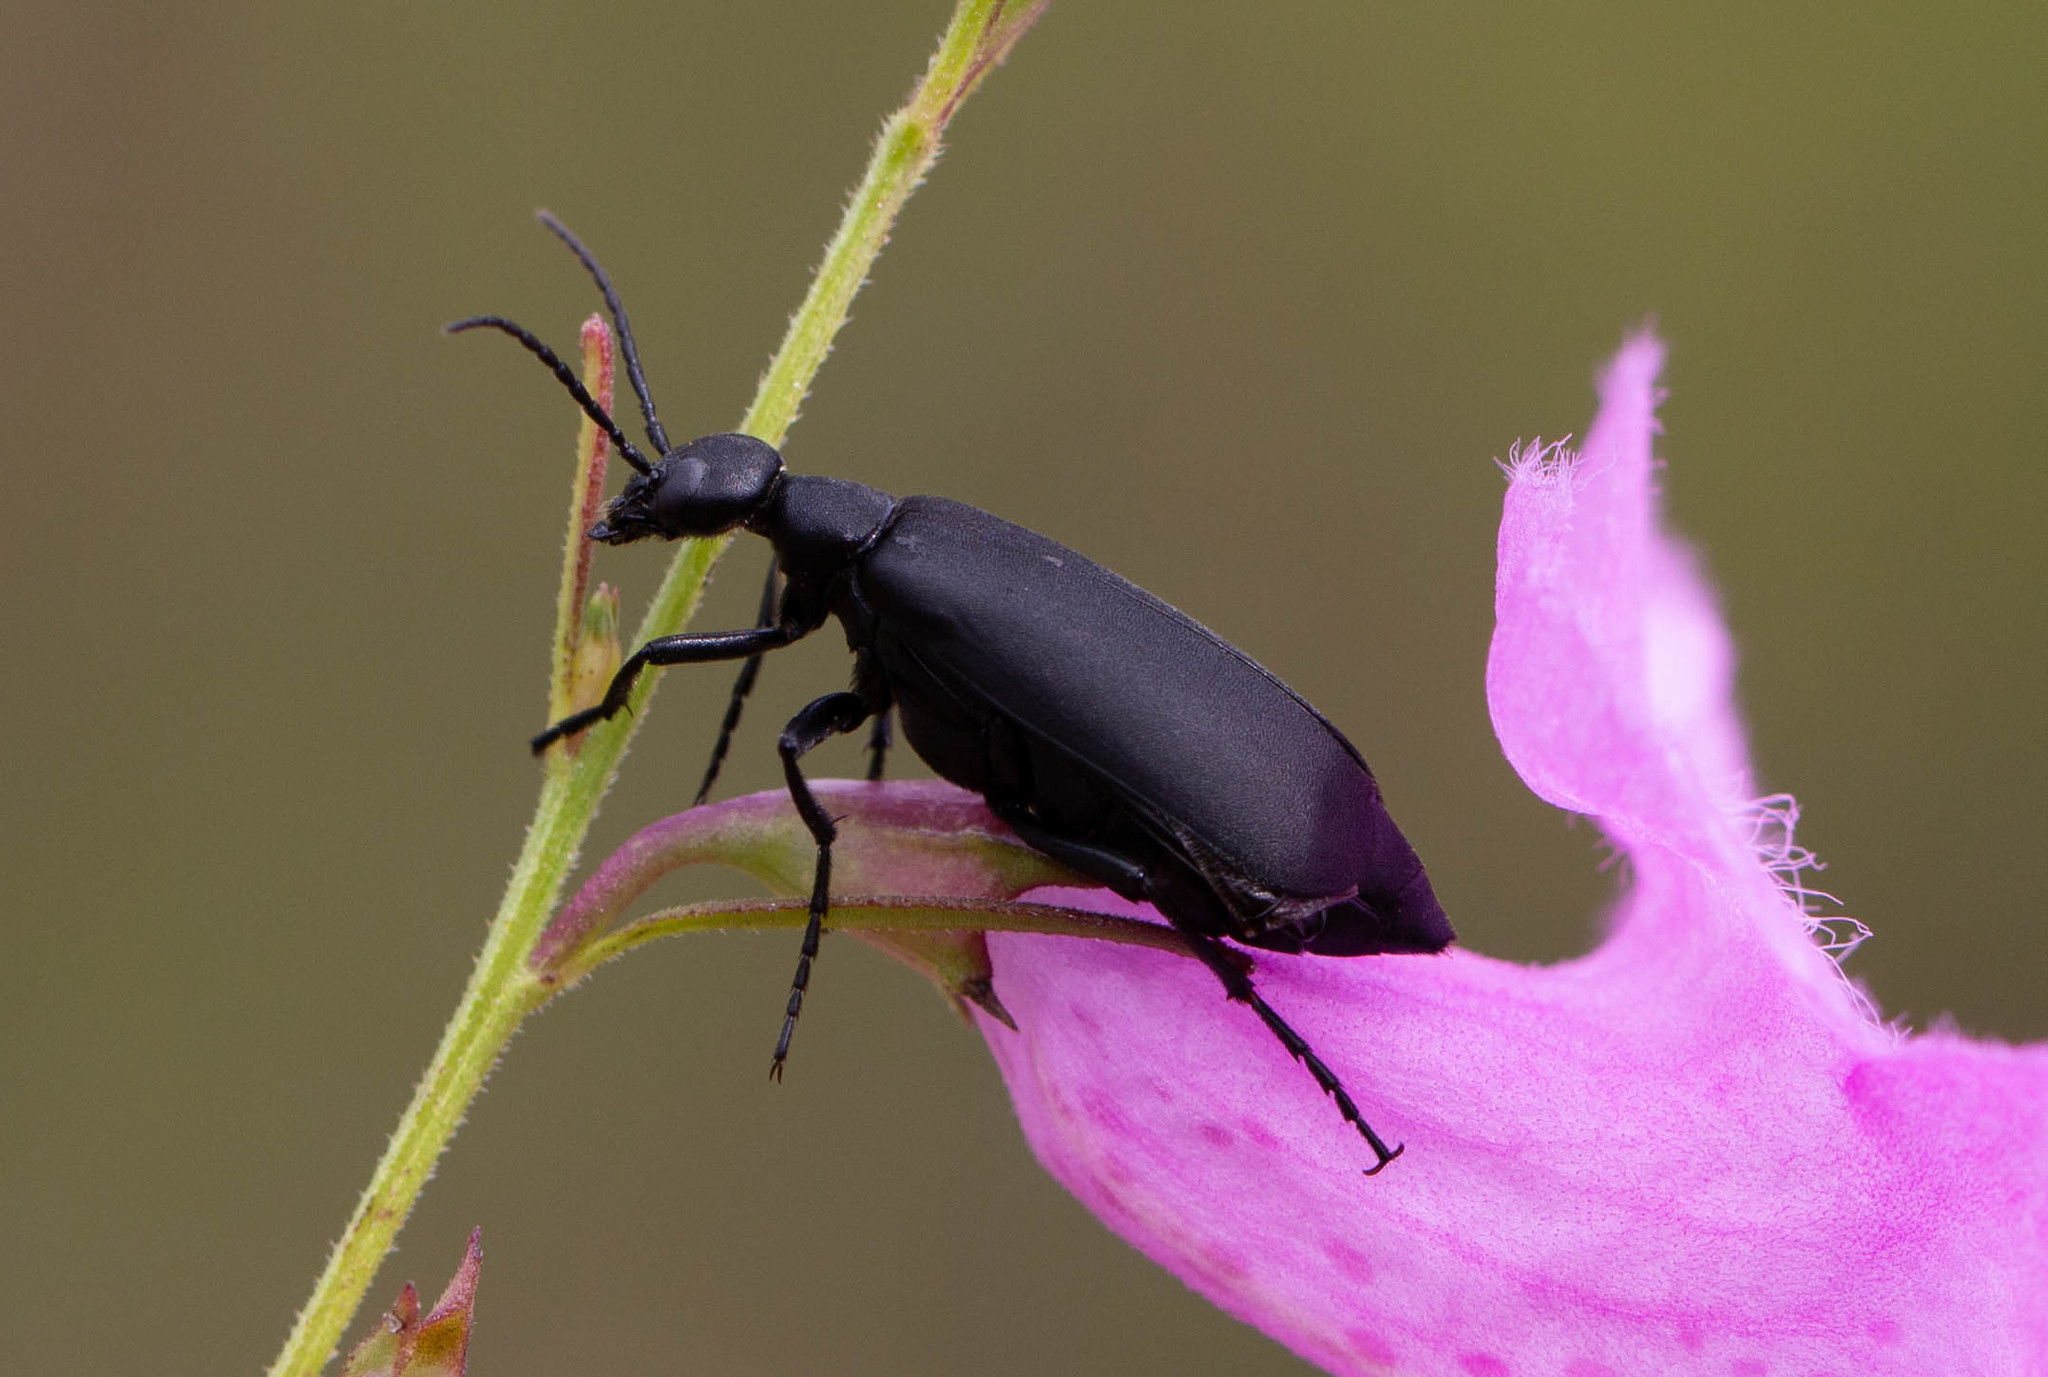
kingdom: Animalia
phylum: Arthropoda
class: Insecta
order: Coleoptera
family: Meloidae
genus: Epicauta
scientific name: Epicauta pensylvanica
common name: Black blister beetle
